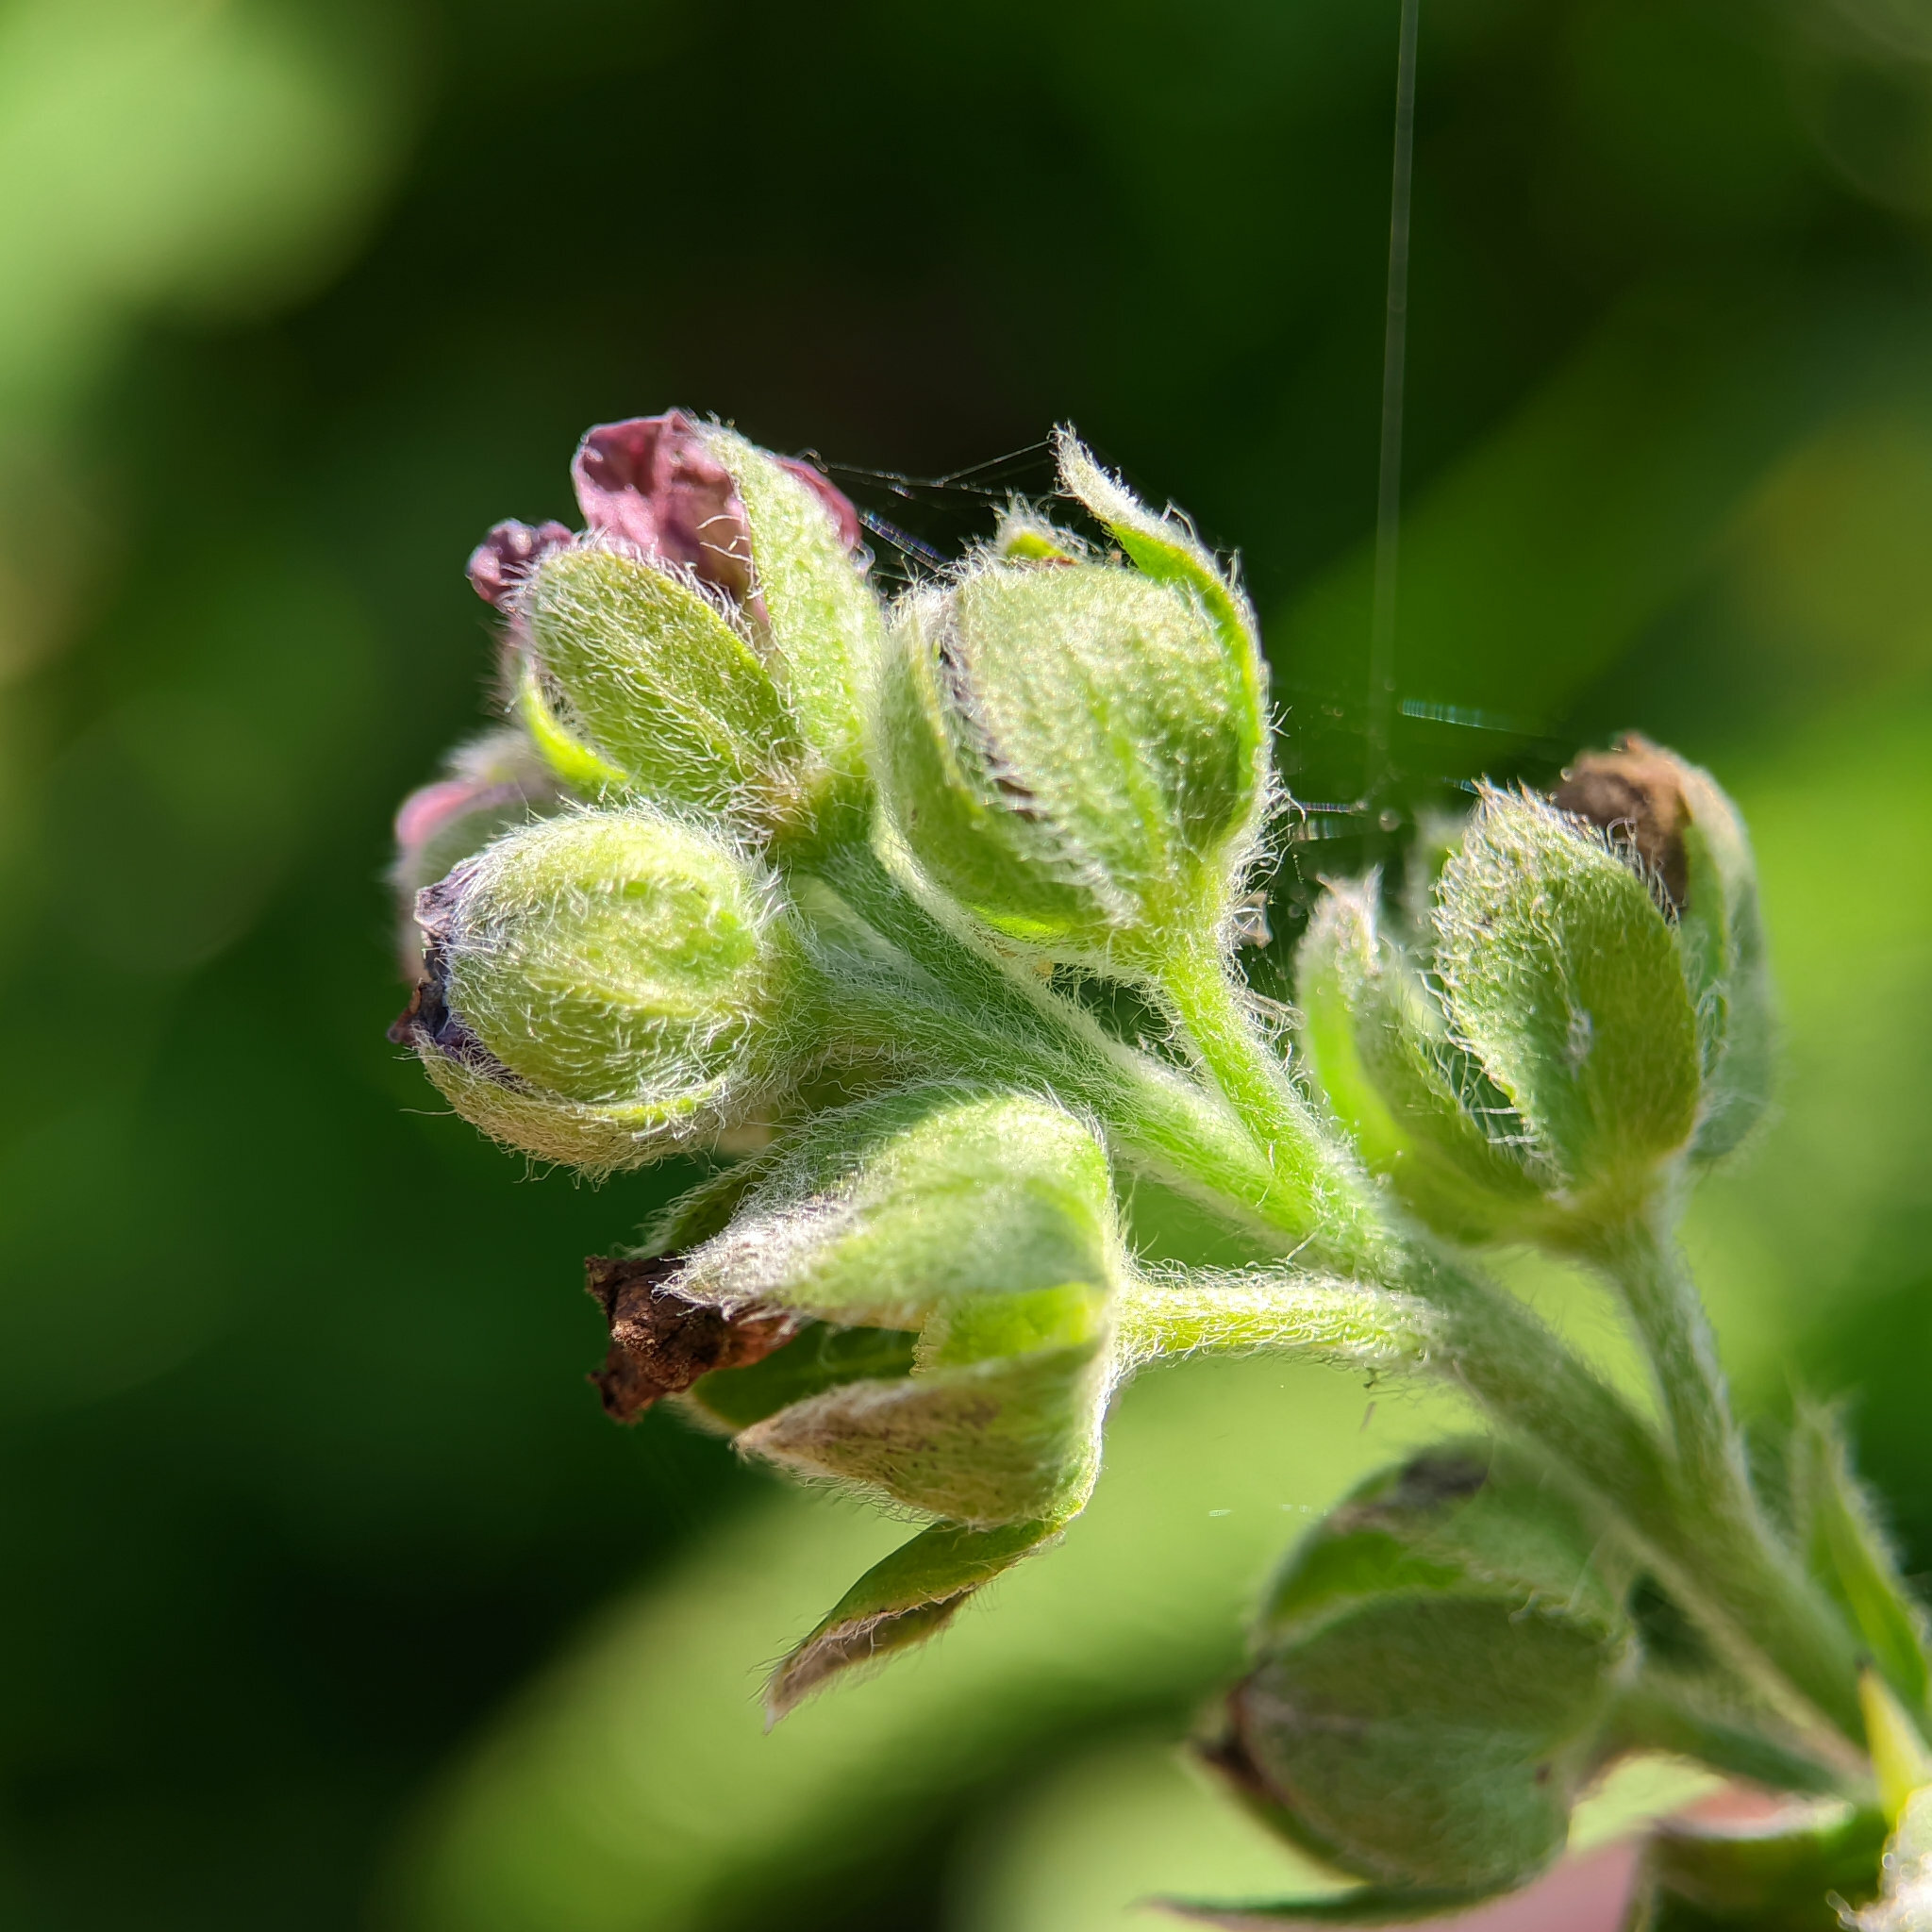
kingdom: Plantae
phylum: Tracheophyta
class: Magnoliopsida
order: Boraginales
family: Boraginaceae
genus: Cynoglossum
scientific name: Cynoglossum officinale
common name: Hound's-tongue
